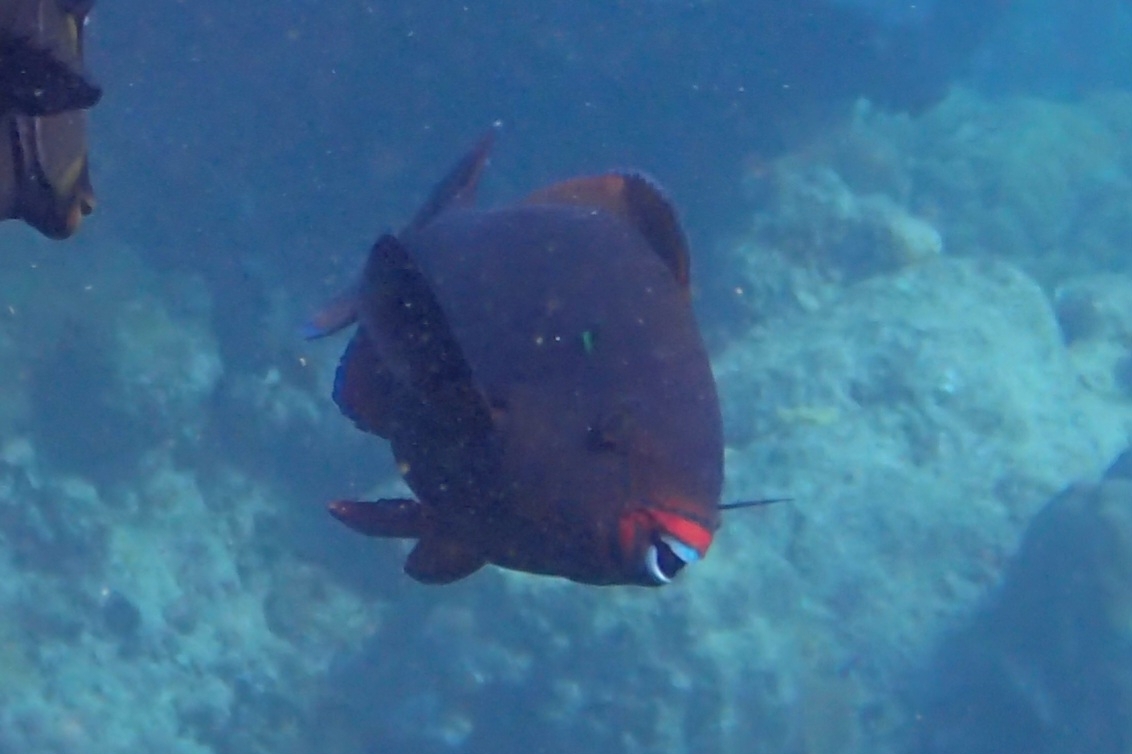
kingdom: Animalia
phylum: Chordata
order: Perciformes
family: Scaridae
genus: Scarus
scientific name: Scarus niger
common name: Dusky parrotfish
